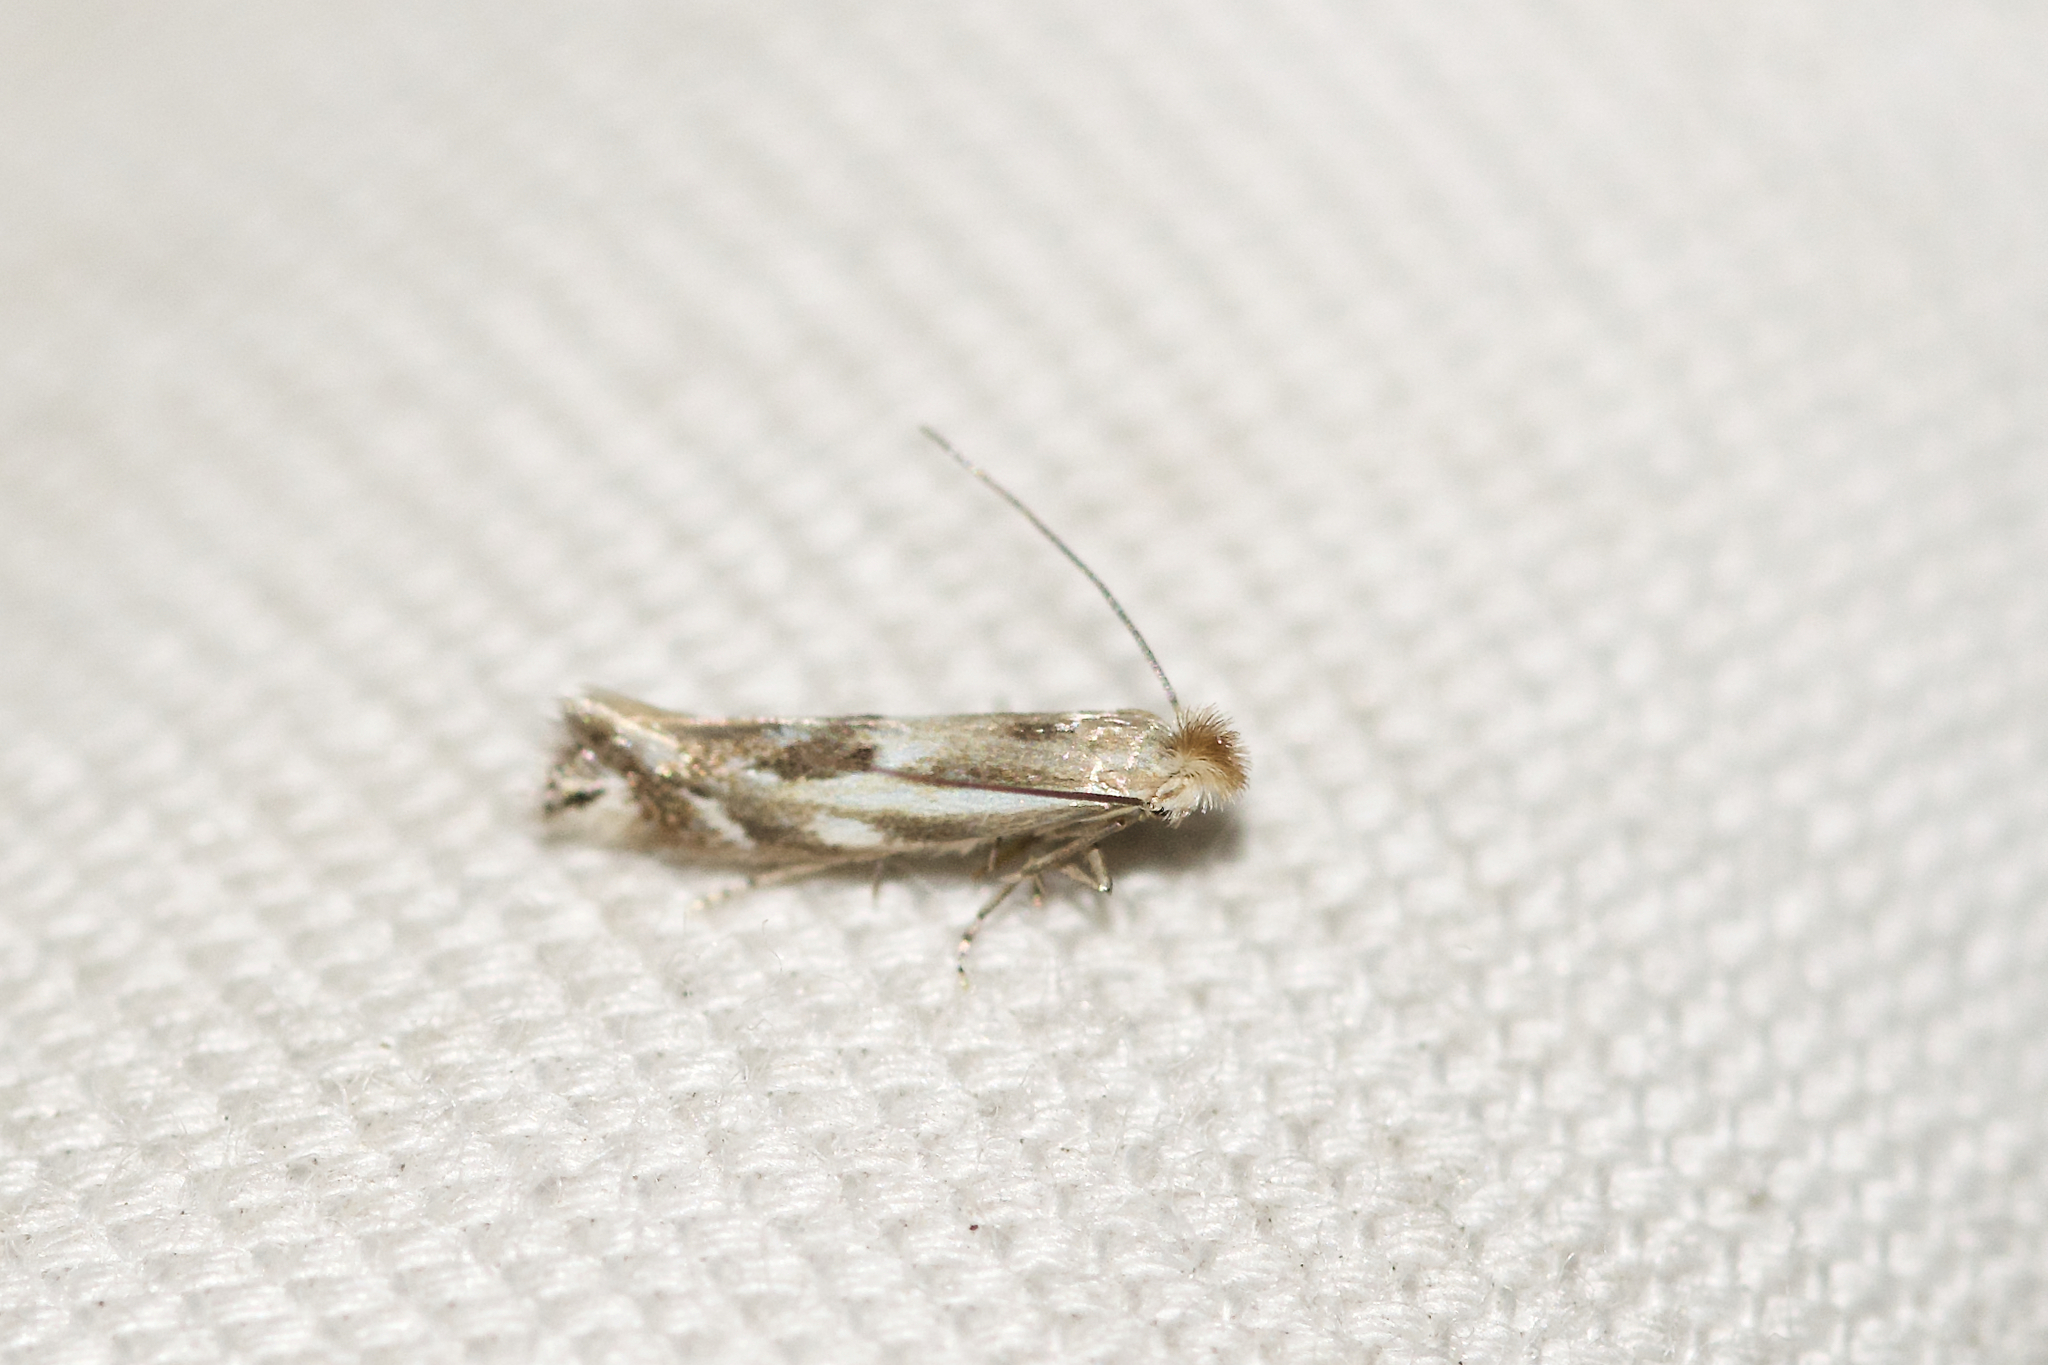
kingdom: Animalia
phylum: Arthropoda
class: Insecta
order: Lepidoptera
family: Bucculatricidae
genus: Bucculatrix
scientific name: Bucculatrix angustata
